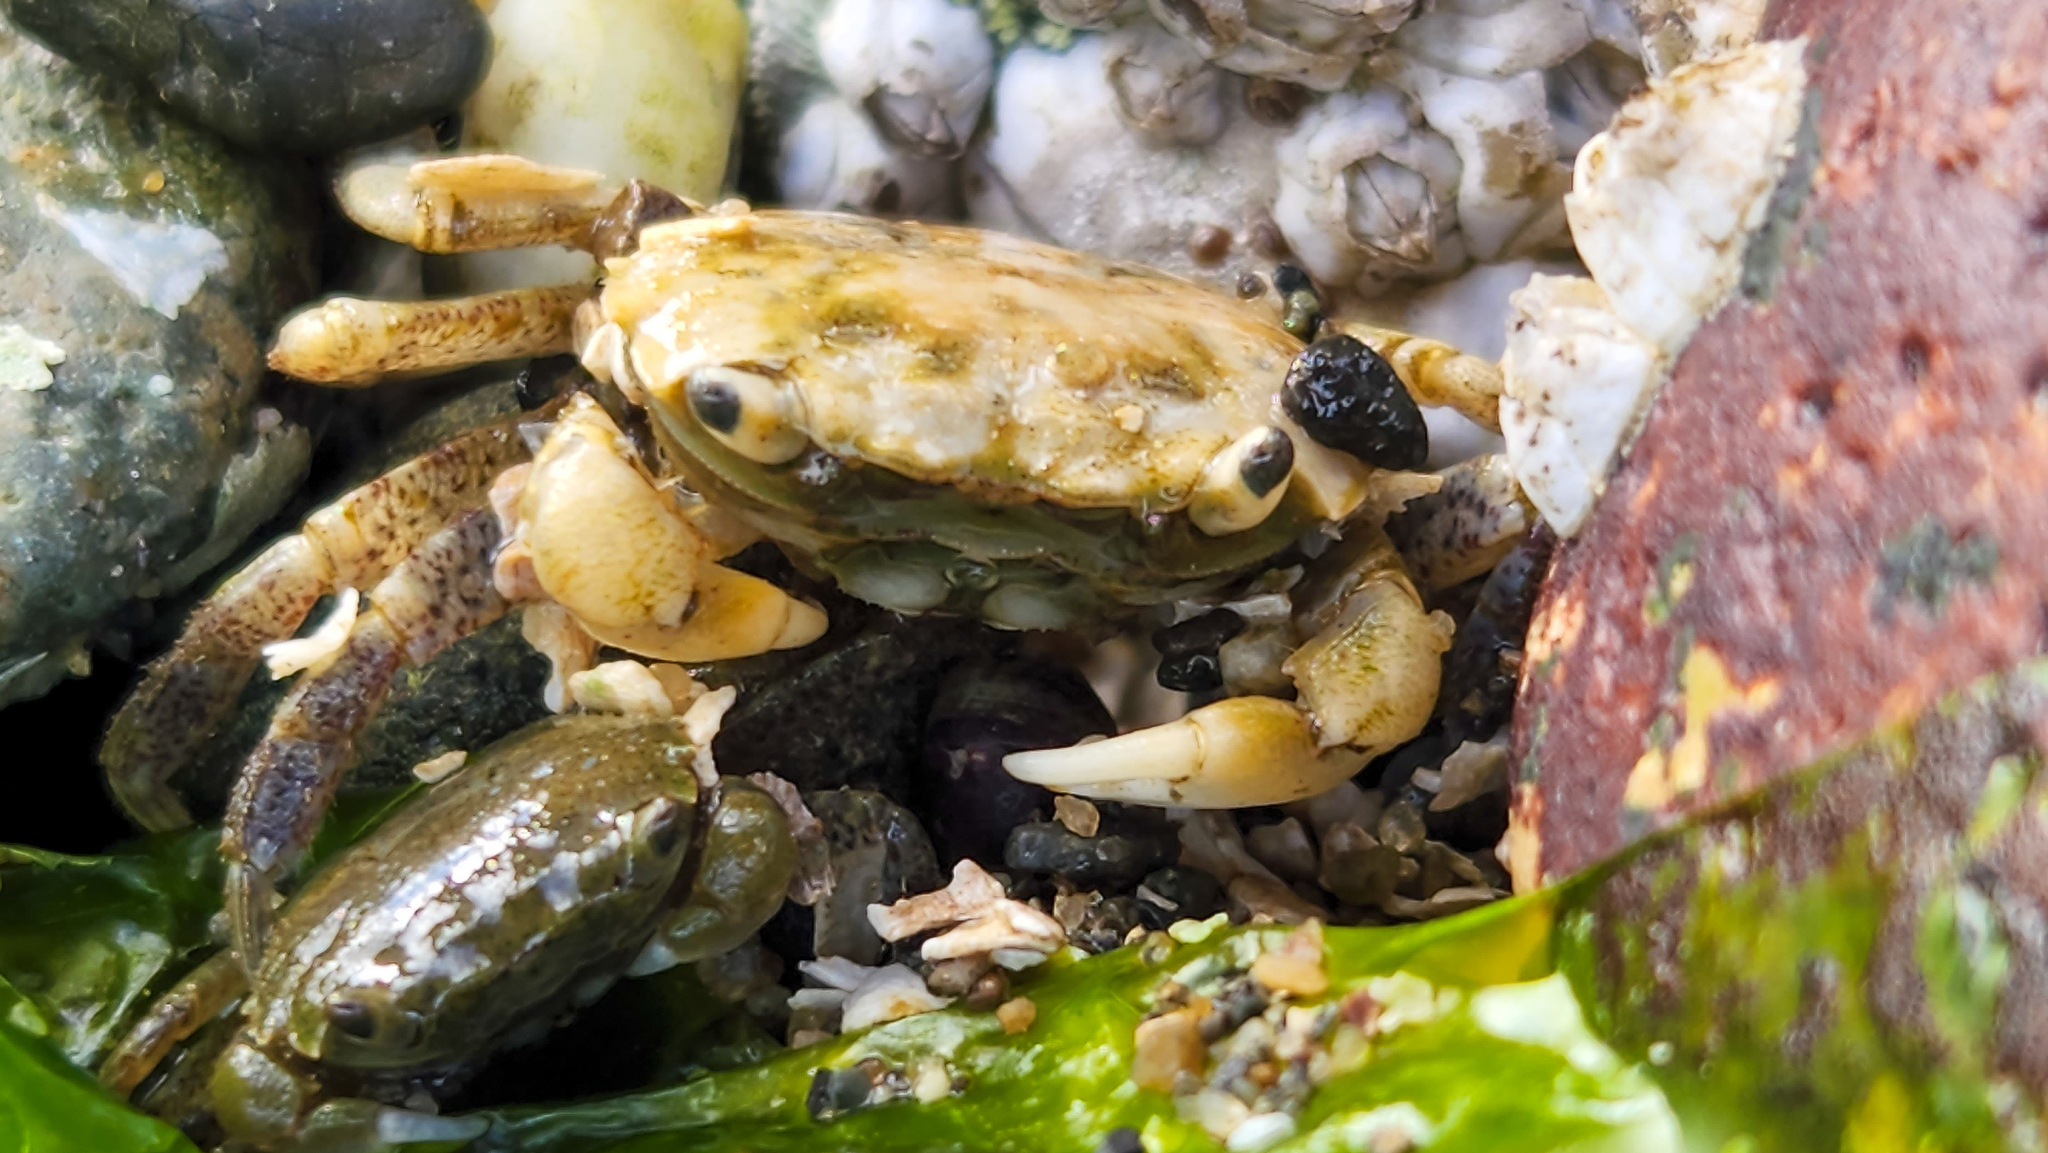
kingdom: Animalia
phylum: Arthropoda
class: Malacostraca
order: Decapoda
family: Varunidae
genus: Hemigrapsus
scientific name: Hemigrapsus oregonensis
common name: Yellow shore crab
